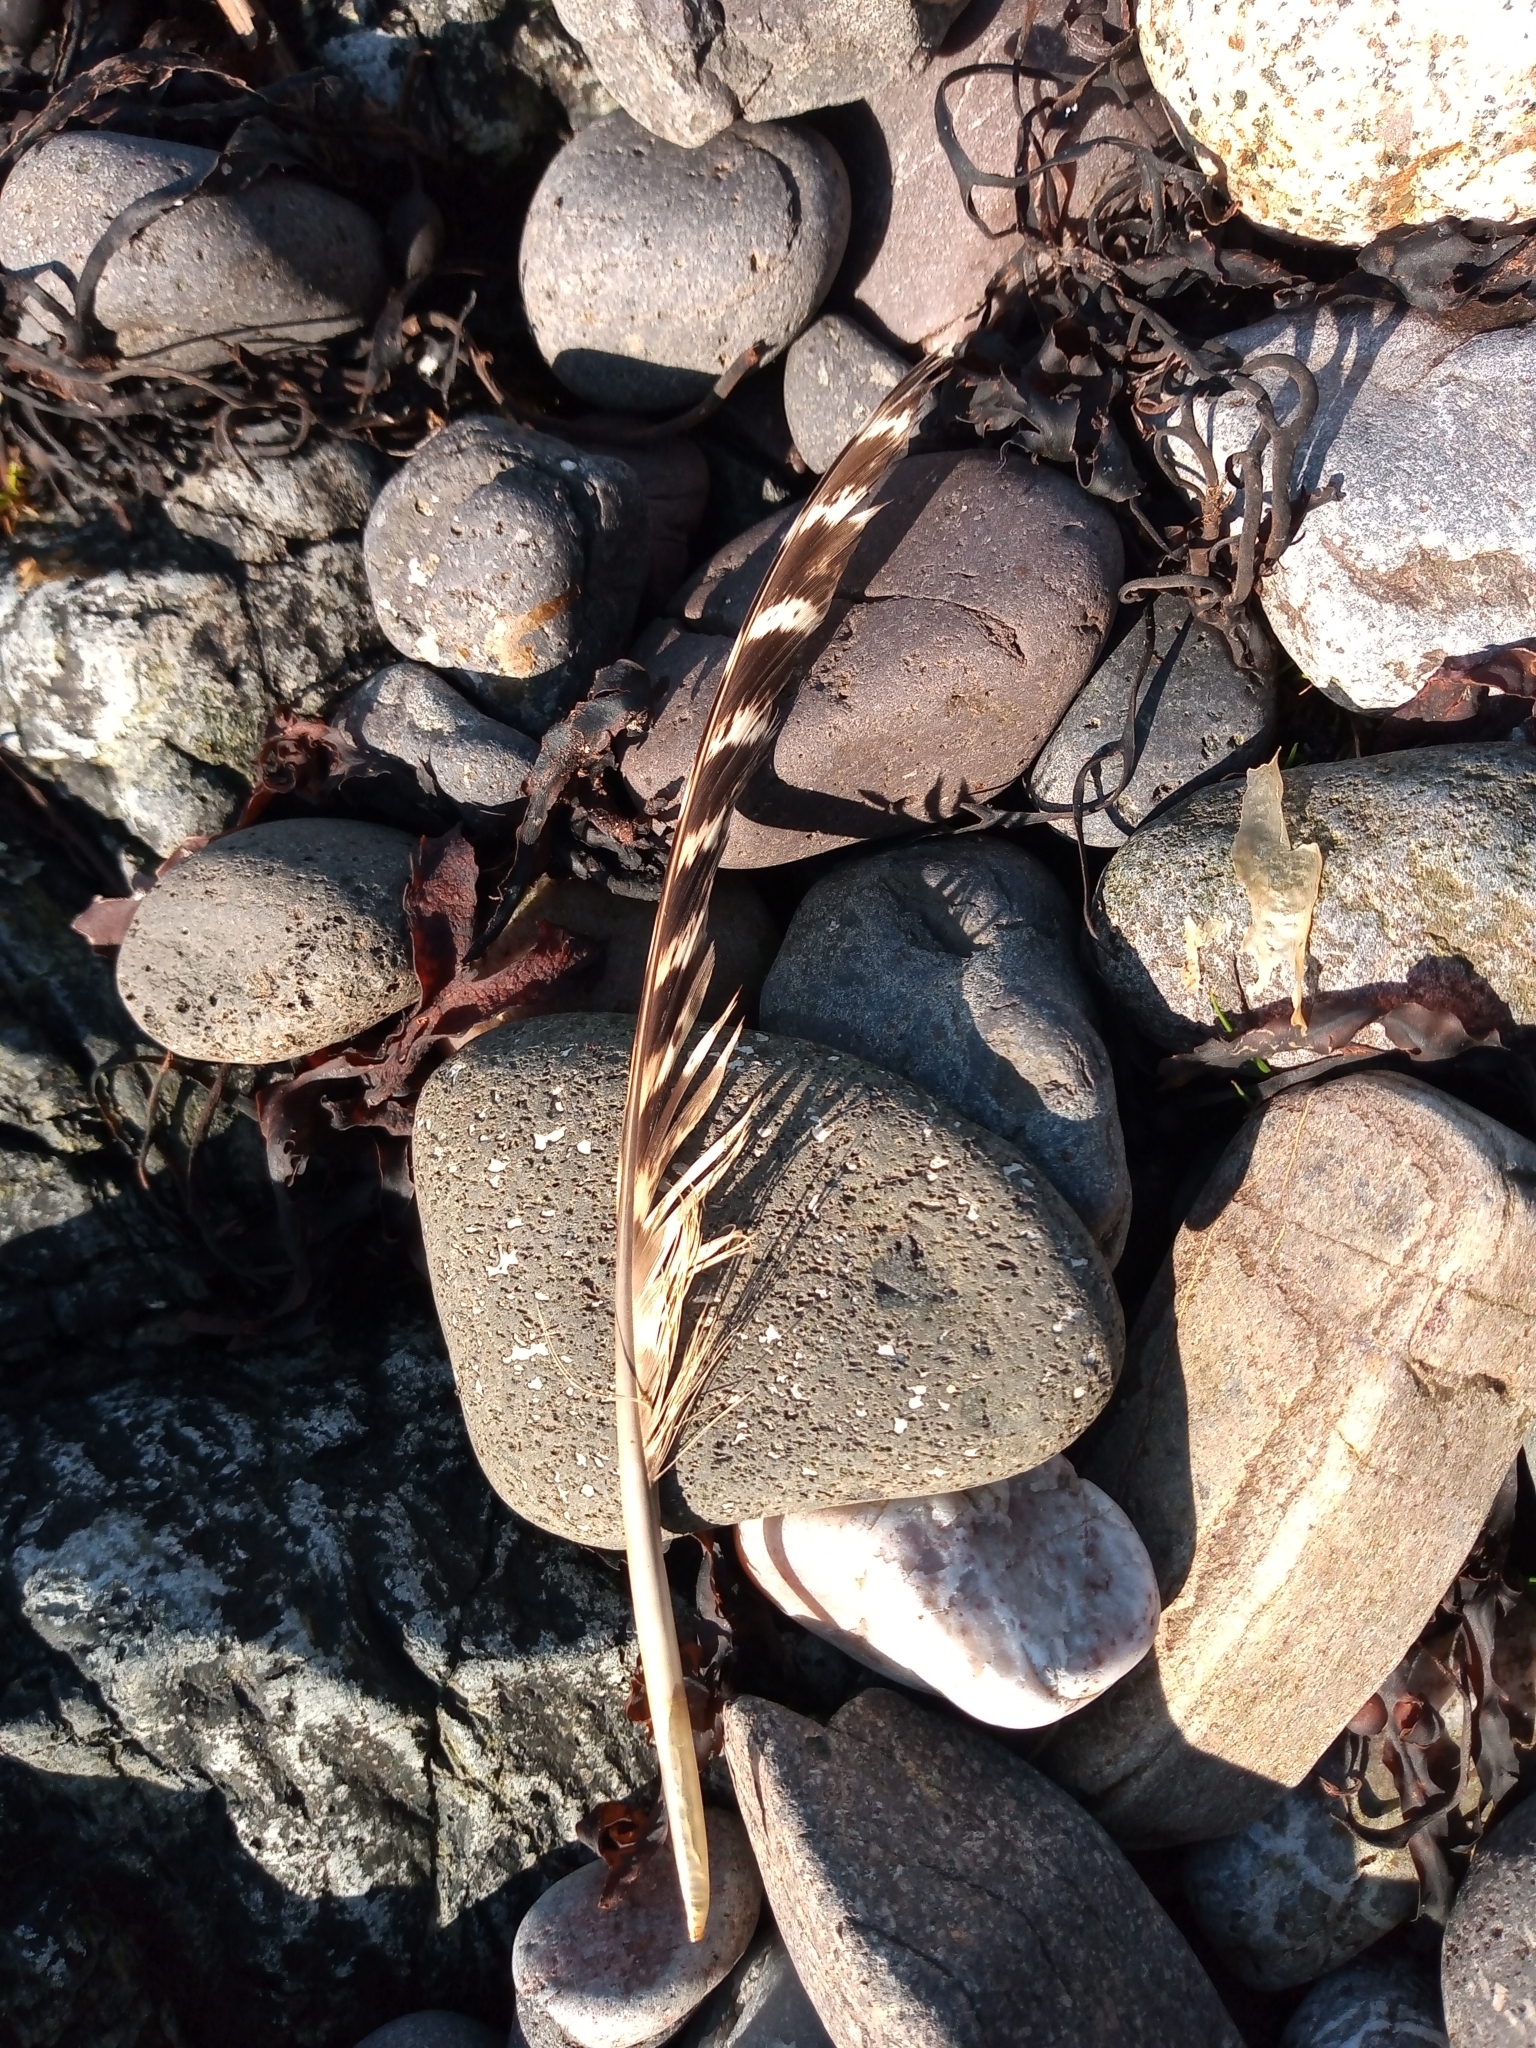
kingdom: Animalia
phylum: Chordata
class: Aves
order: Galliformes
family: Phasianidae
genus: Phasianus
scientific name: Phasianus colchicus
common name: Common pheasant
